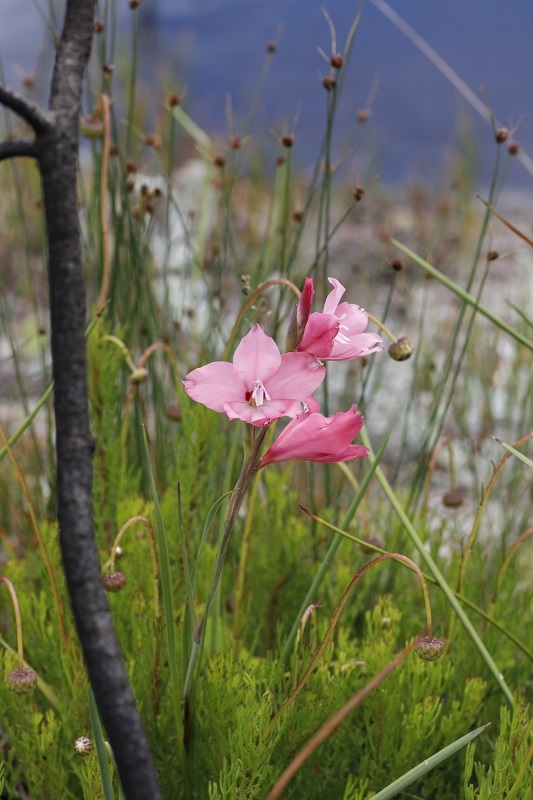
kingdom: Plantae
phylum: Tracheophyta
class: Liliopsida
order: Asparagales
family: Iridaceae
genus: Gladiolus
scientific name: Gladiolus carneus
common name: Painted-lady
